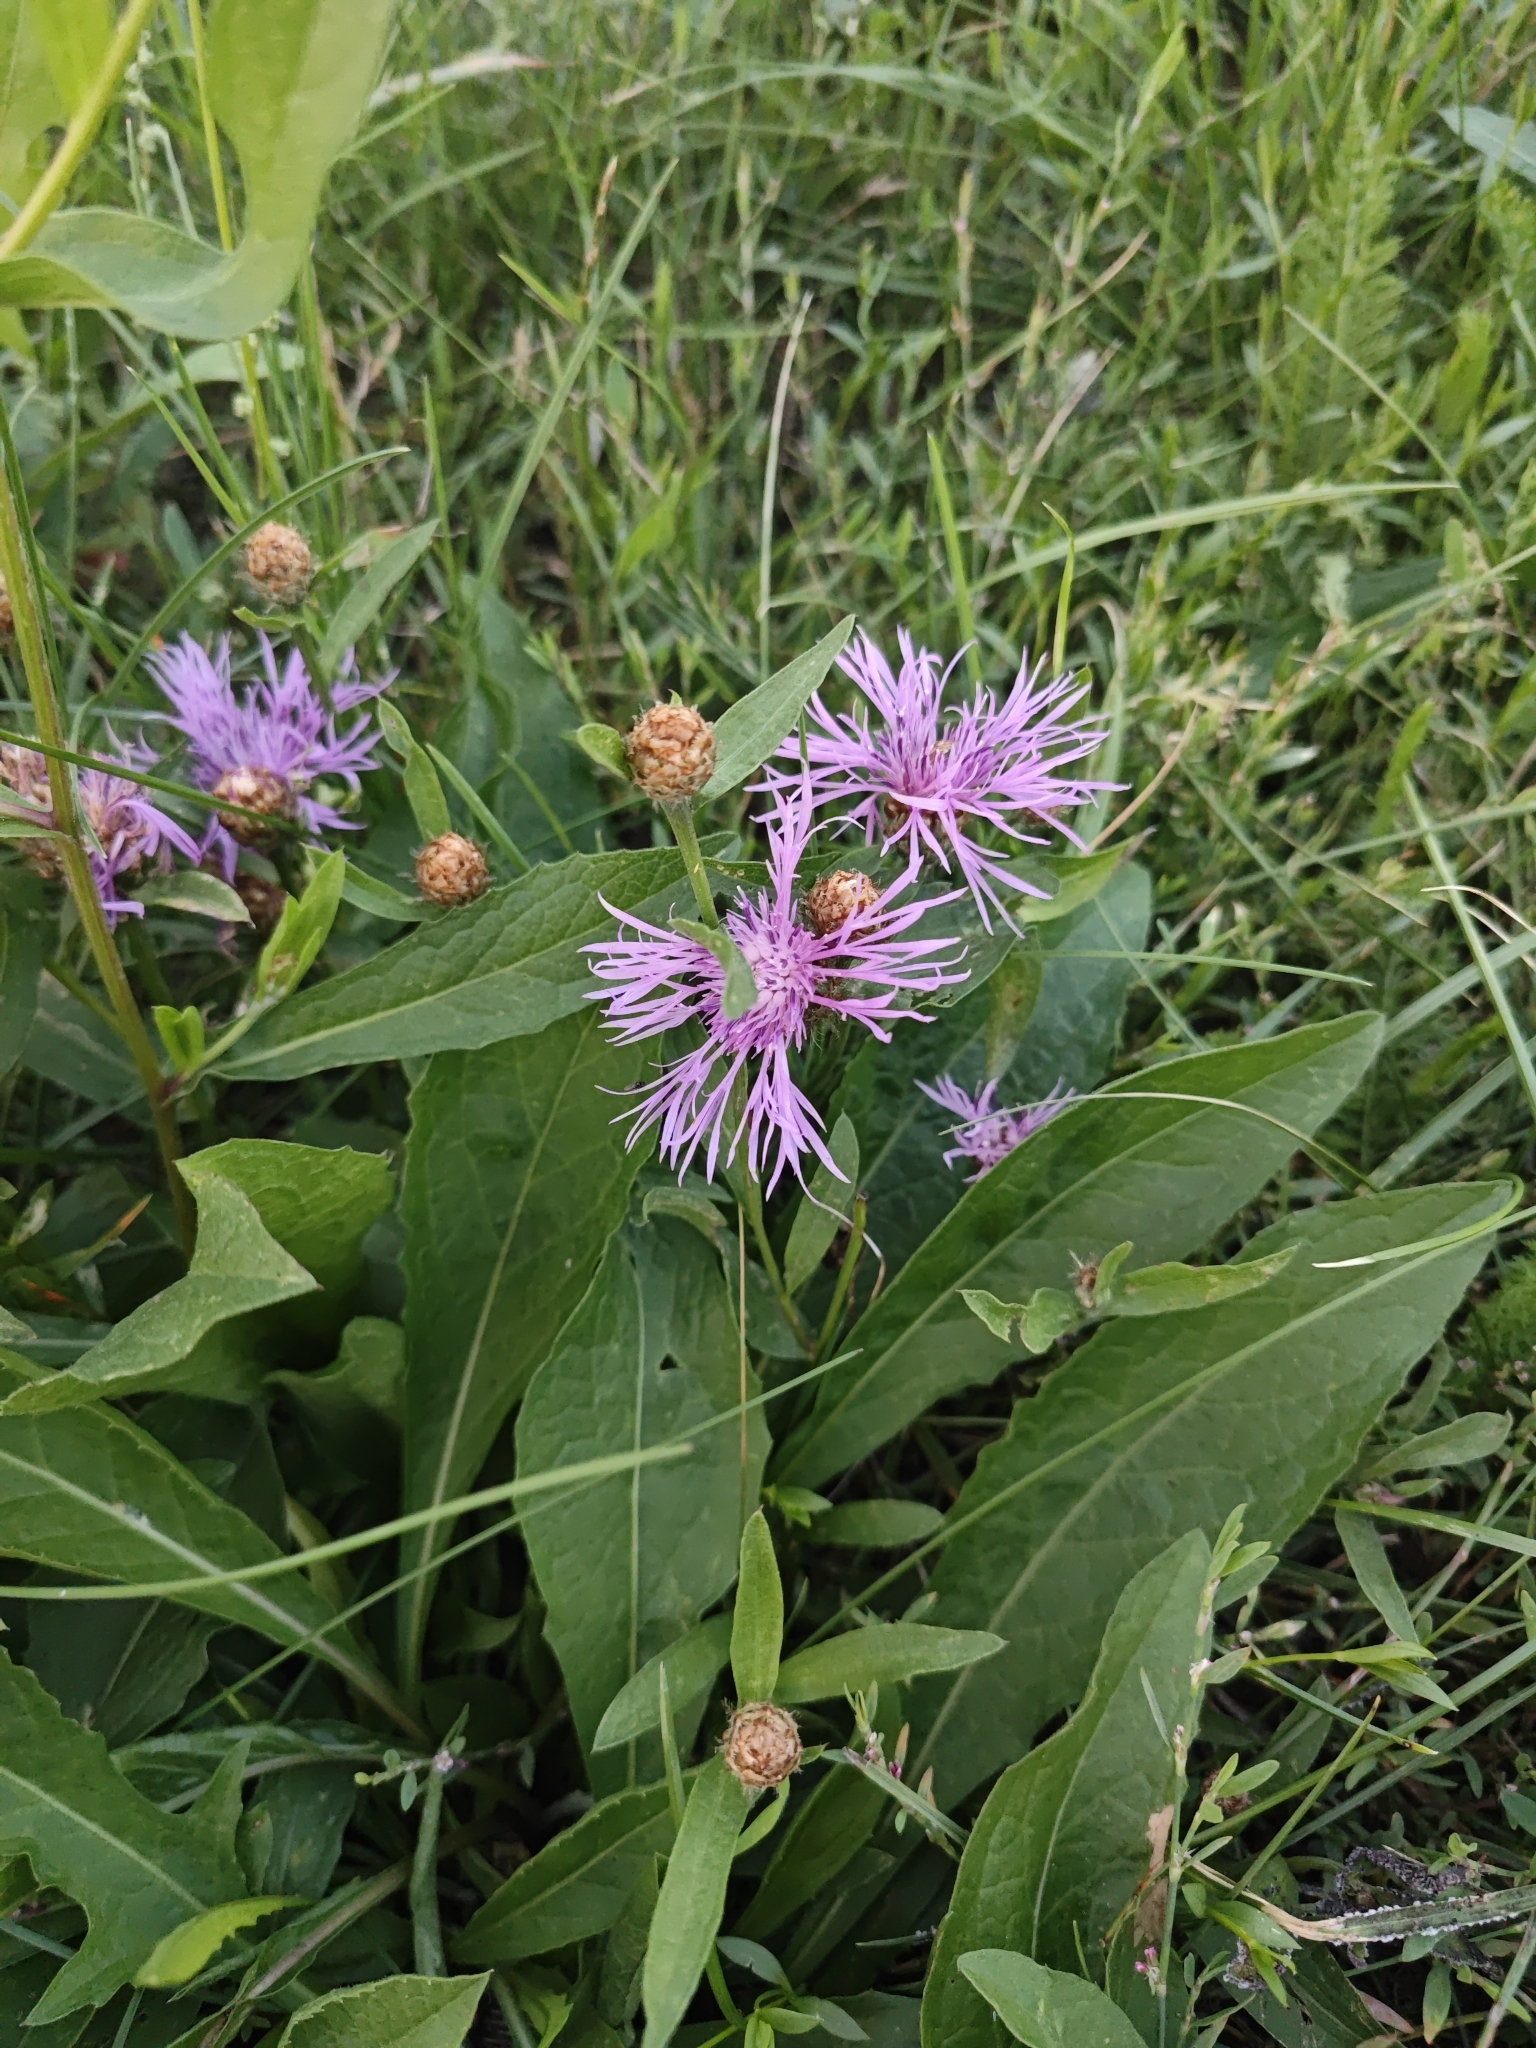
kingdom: Plantae
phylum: Tracheophyta
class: Magnoliopsida
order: Asterales
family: Asteraceae
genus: Centaurea
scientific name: Centaurea jacea
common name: Brown knapweed
